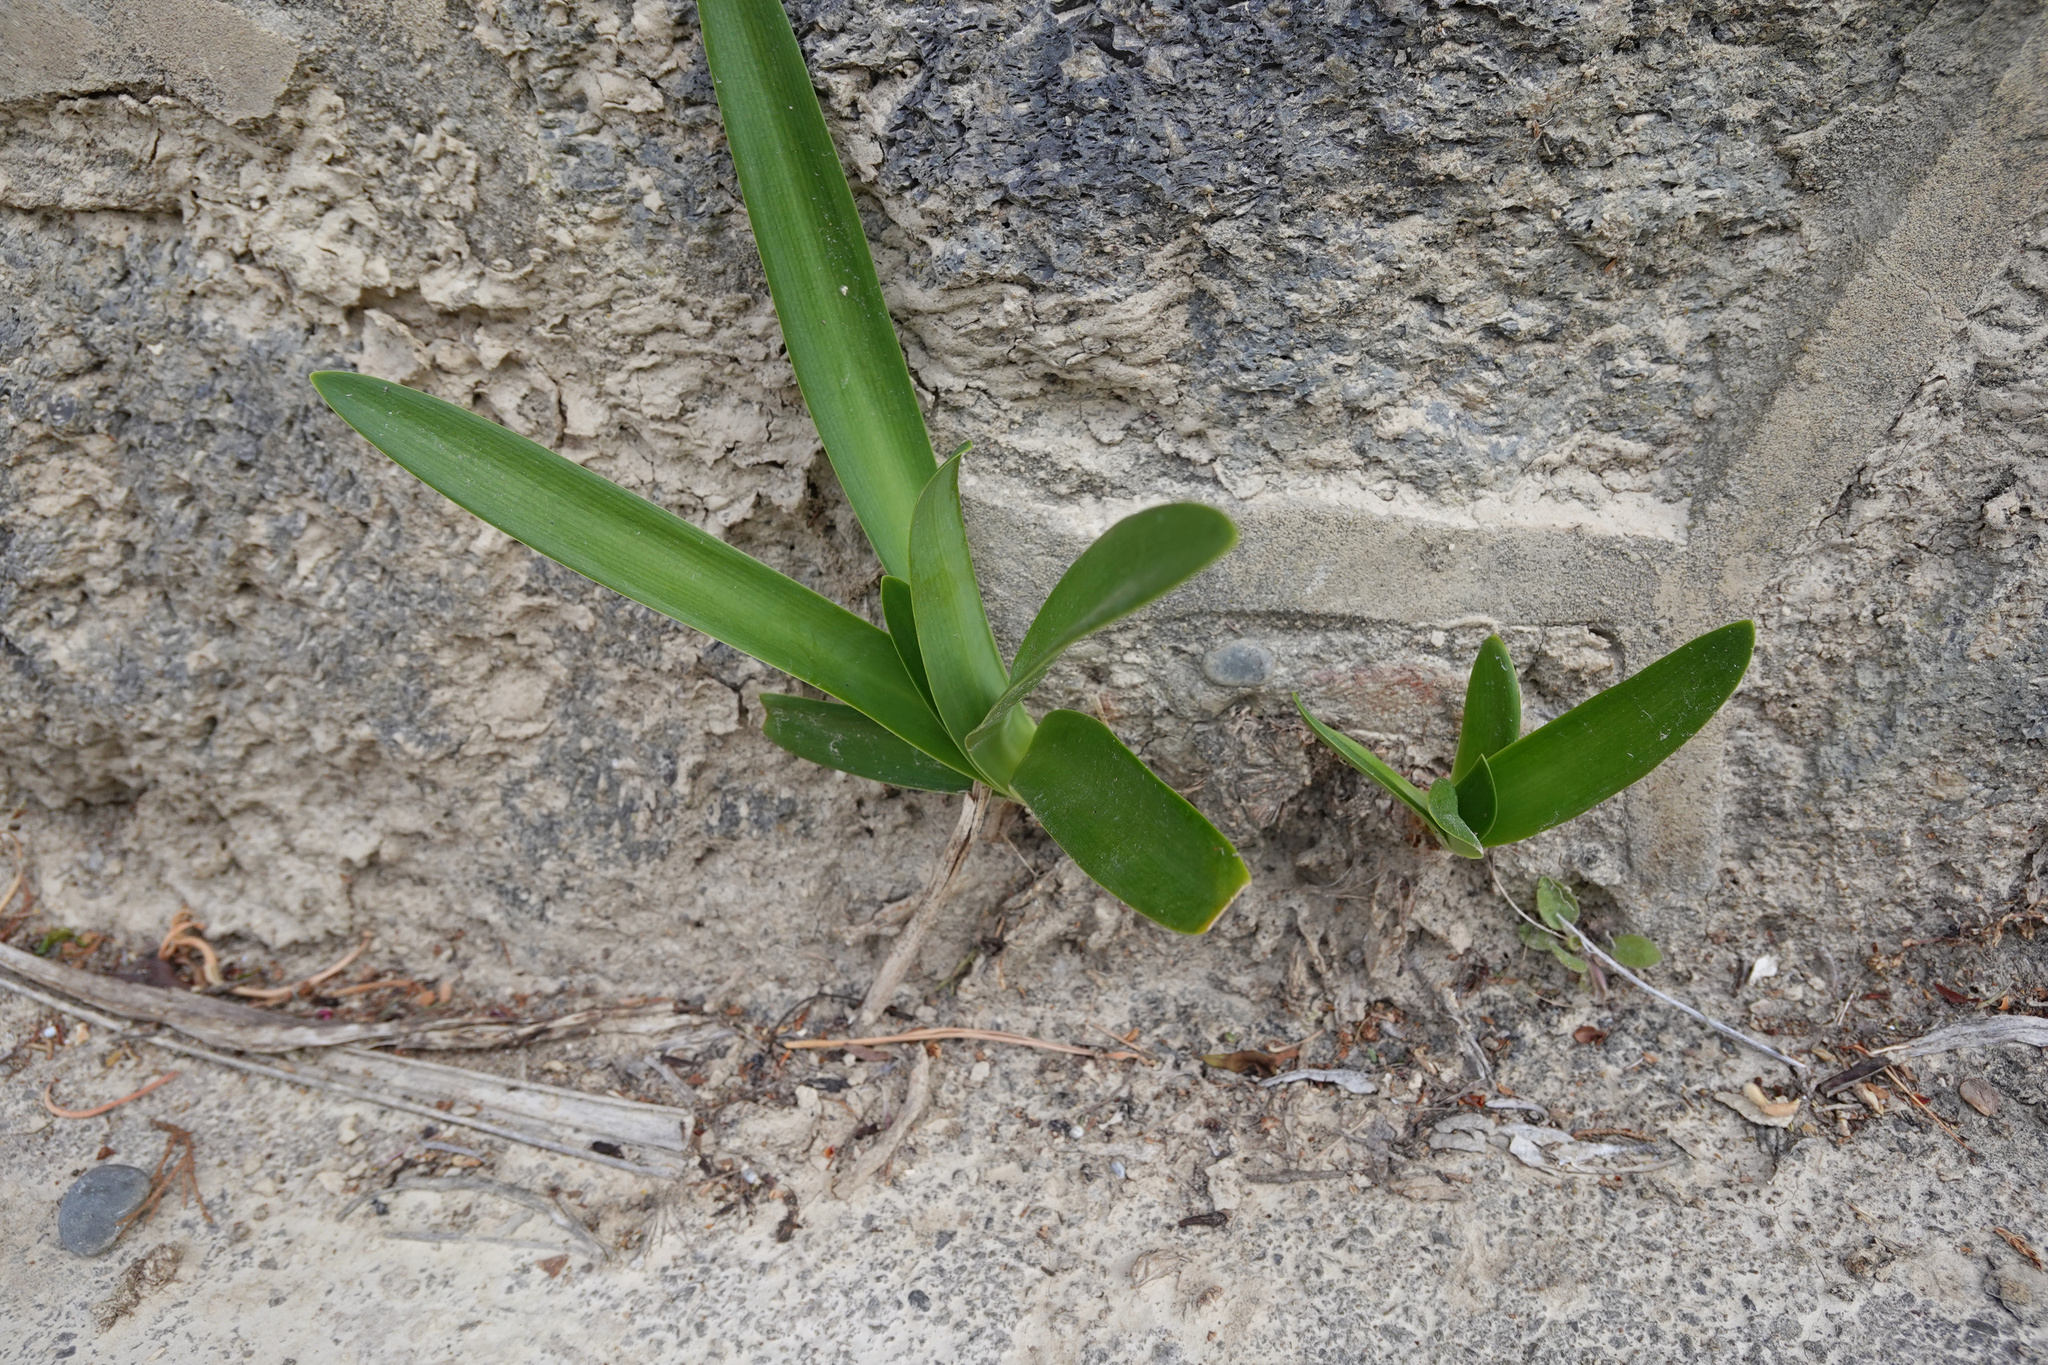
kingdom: Plantae
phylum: Tracheophyta
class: Liliopsida
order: Asparagales
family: Amaryllidaceae
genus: Agapanthus
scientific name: Agapanthus praecox
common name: African-lily
